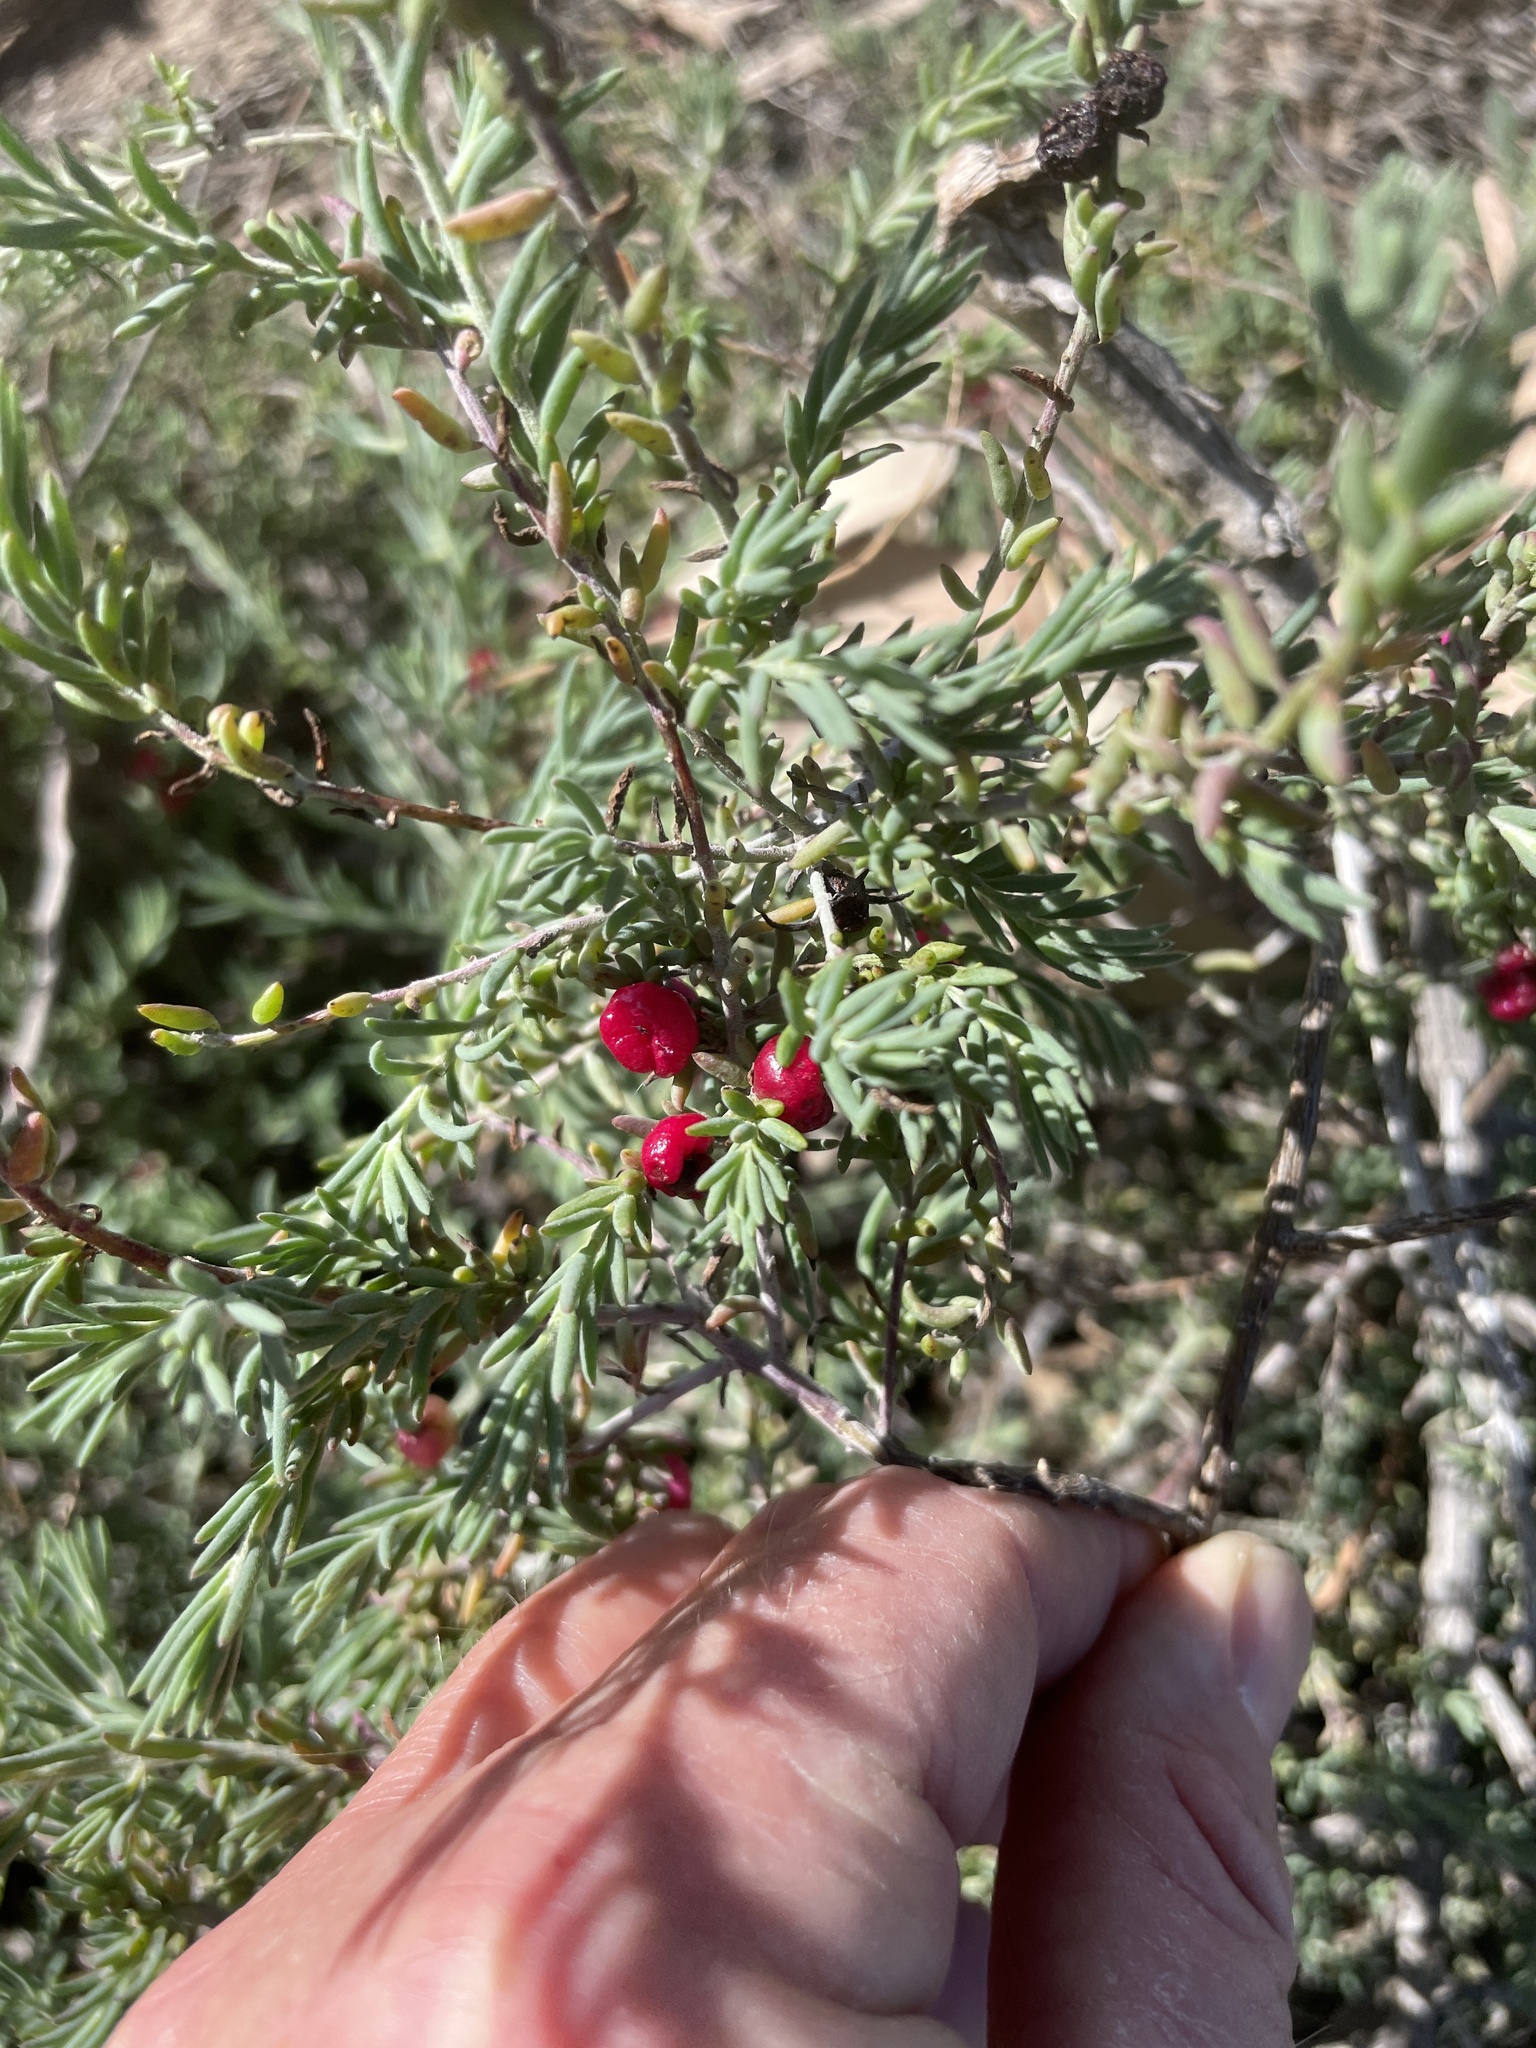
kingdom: Plantae
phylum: Tracheophyta
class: Magnoliopsida
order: Caryophyllales
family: Amaranthaceae
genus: Enchylaena
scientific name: Enchylaena tomentosa
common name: Ruby saltbush
